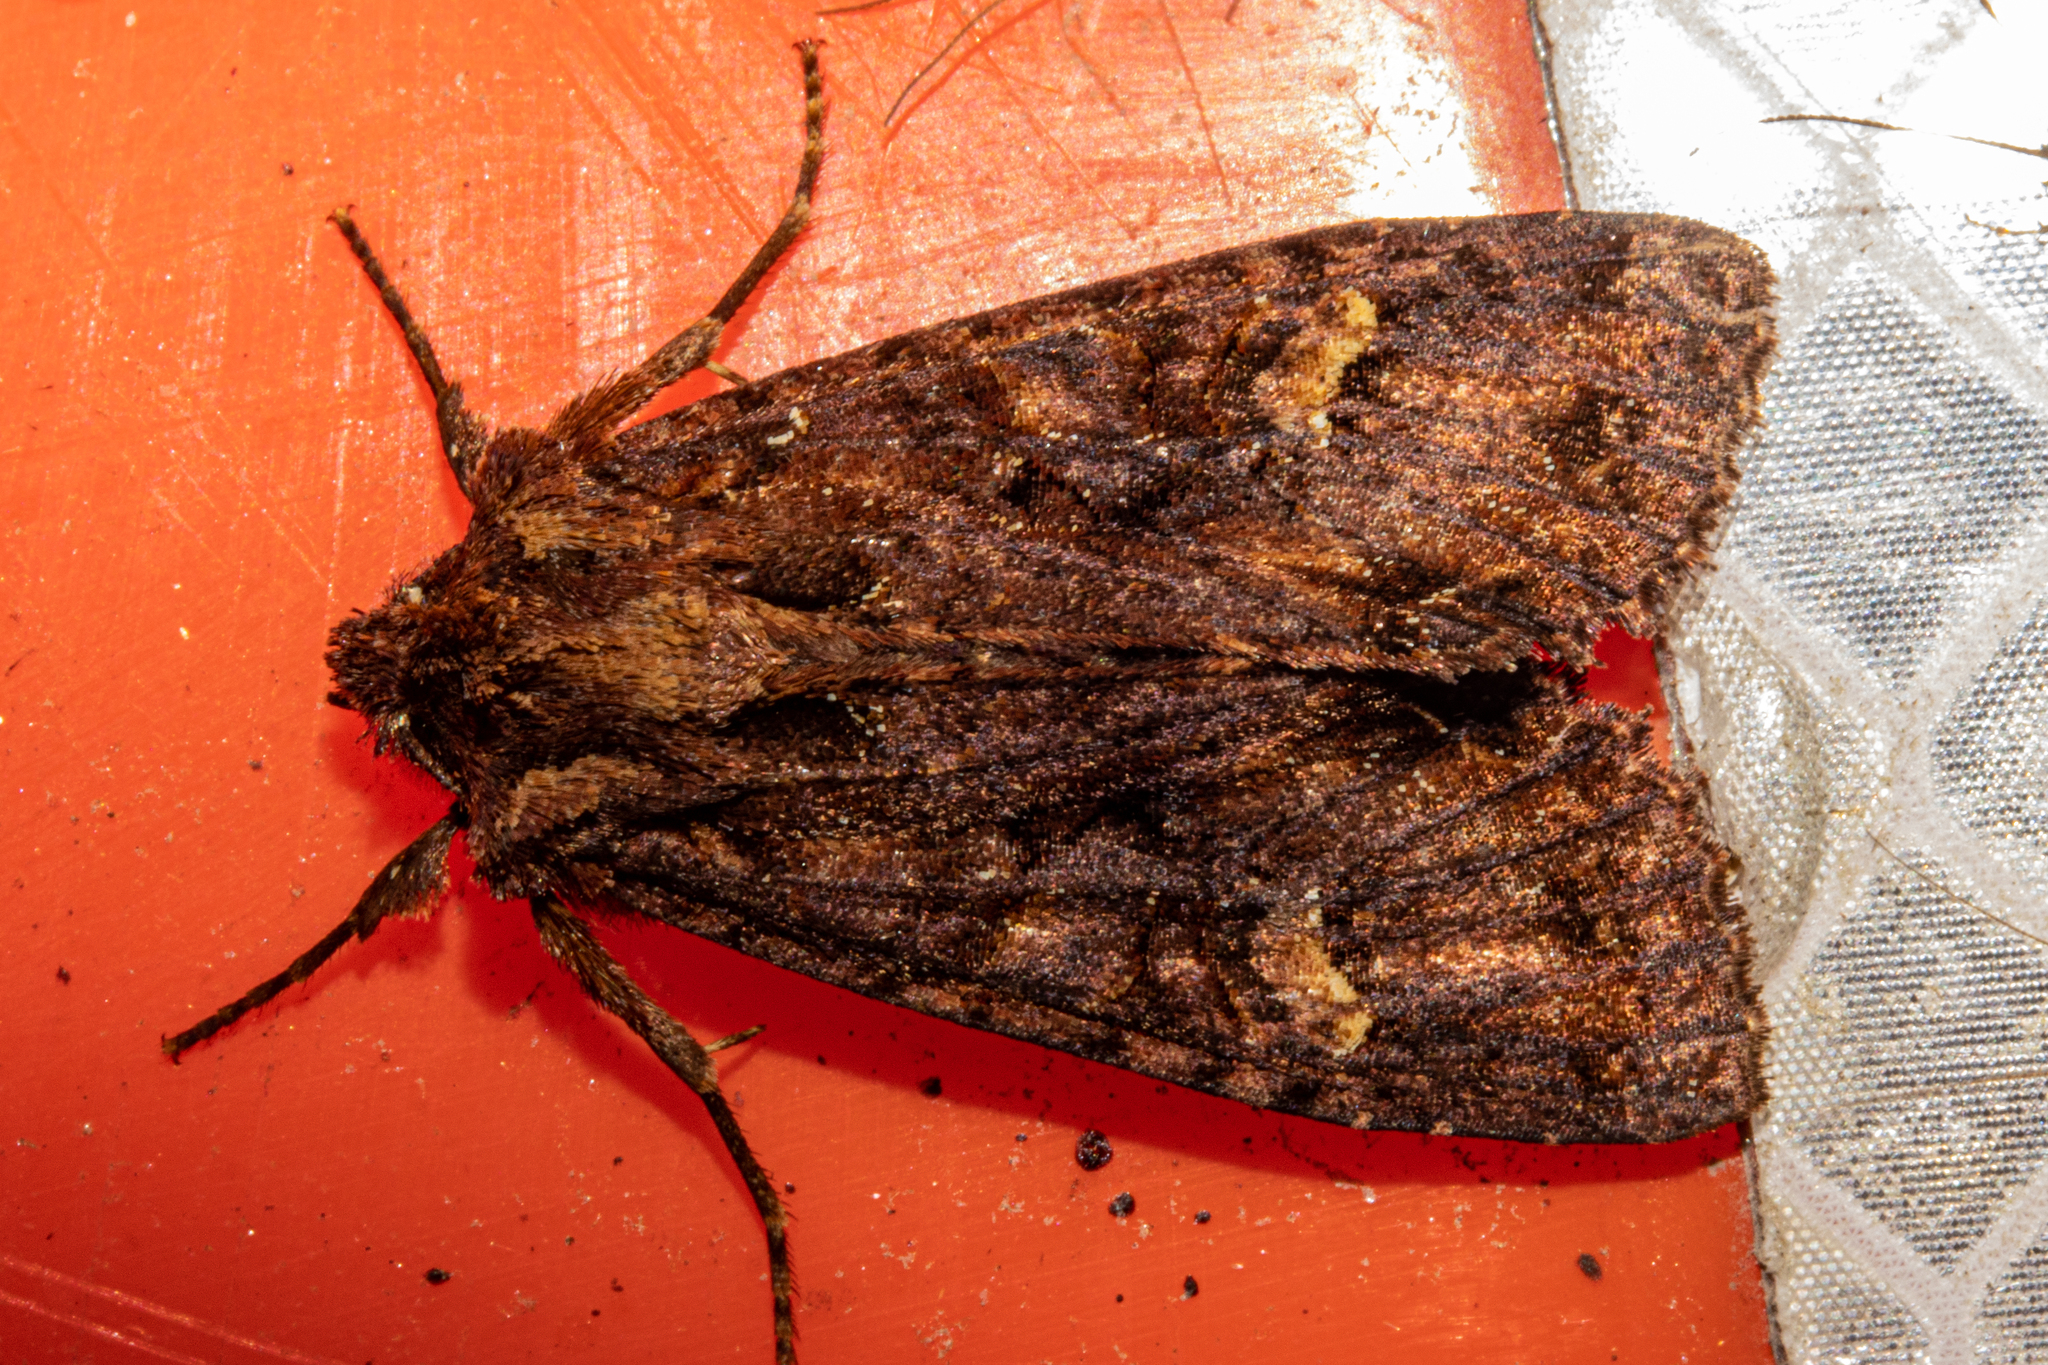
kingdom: Animalia
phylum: Arthropoda
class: Insecta
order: Lepidoptera
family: Noctuidae
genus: Meterana
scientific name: Meterana dotata
